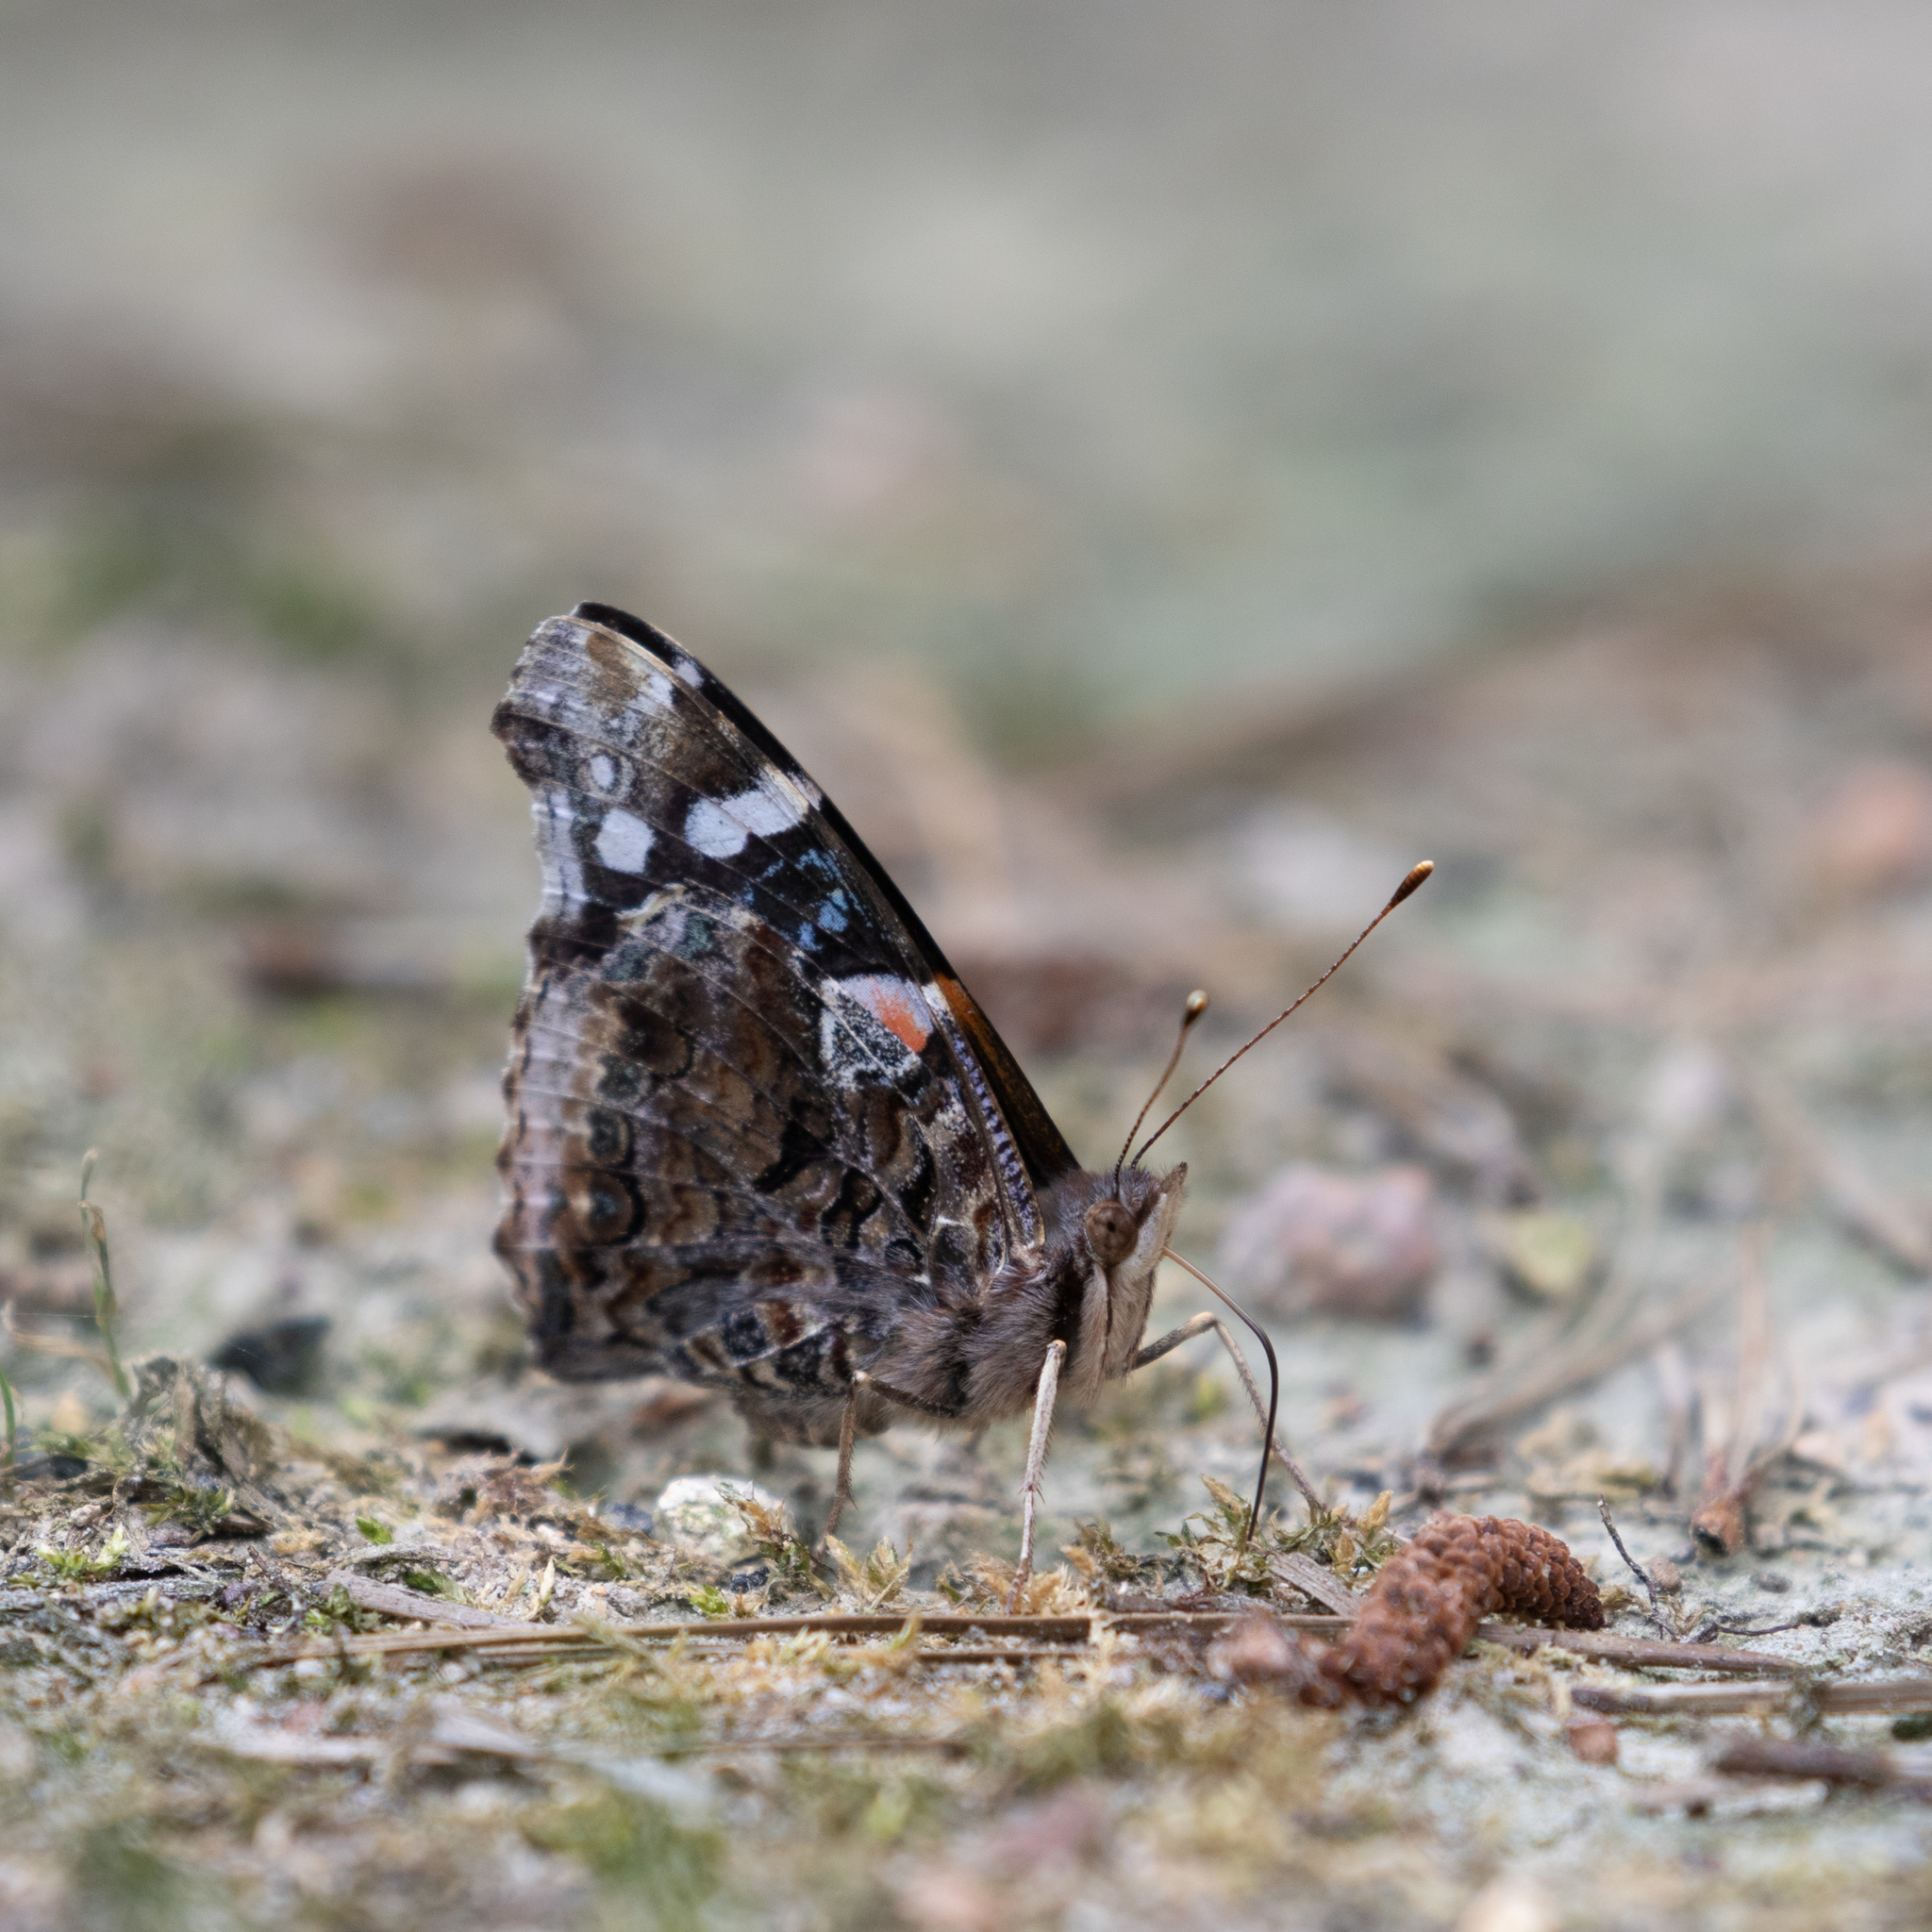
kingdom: Animalia
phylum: Arthropoda
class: Insecta
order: Lepidoptera
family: Nymphalidae
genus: Vanessa
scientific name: Vanessa atalanta
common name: Red admiral
